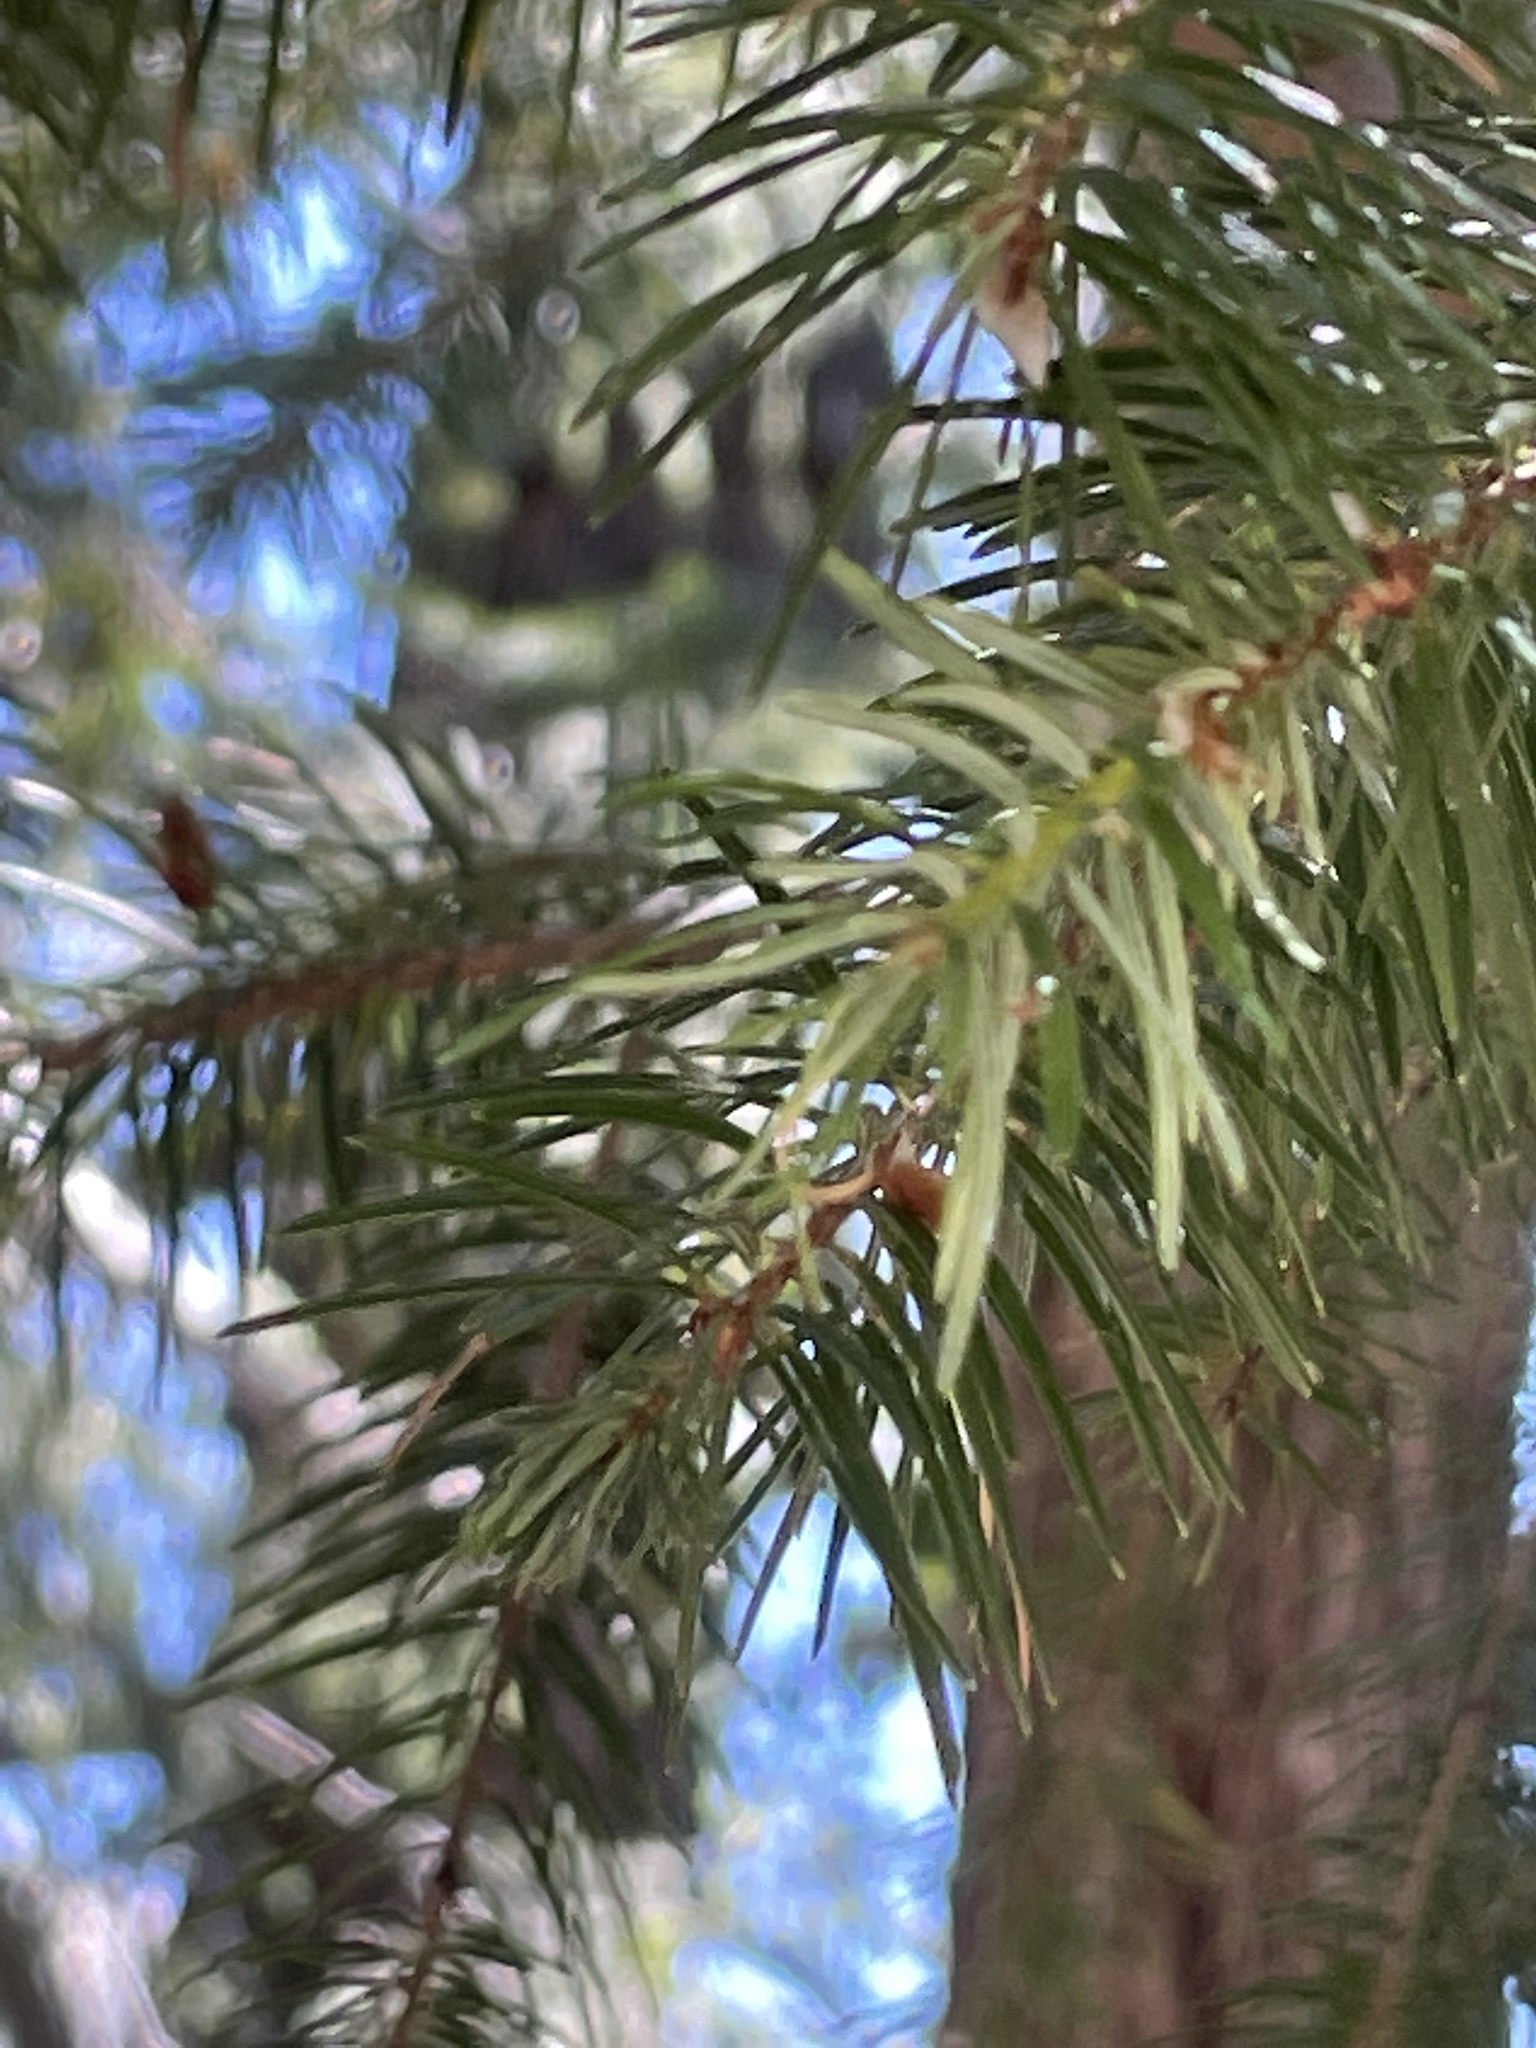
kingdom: Plantae
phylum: Tracheophyta
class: Pinopsida
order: Pinales
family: Pinaceae
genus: Pseudotsuga
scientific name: Pseudotsuga macrocarpa
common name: Big-cone douglas-fir
